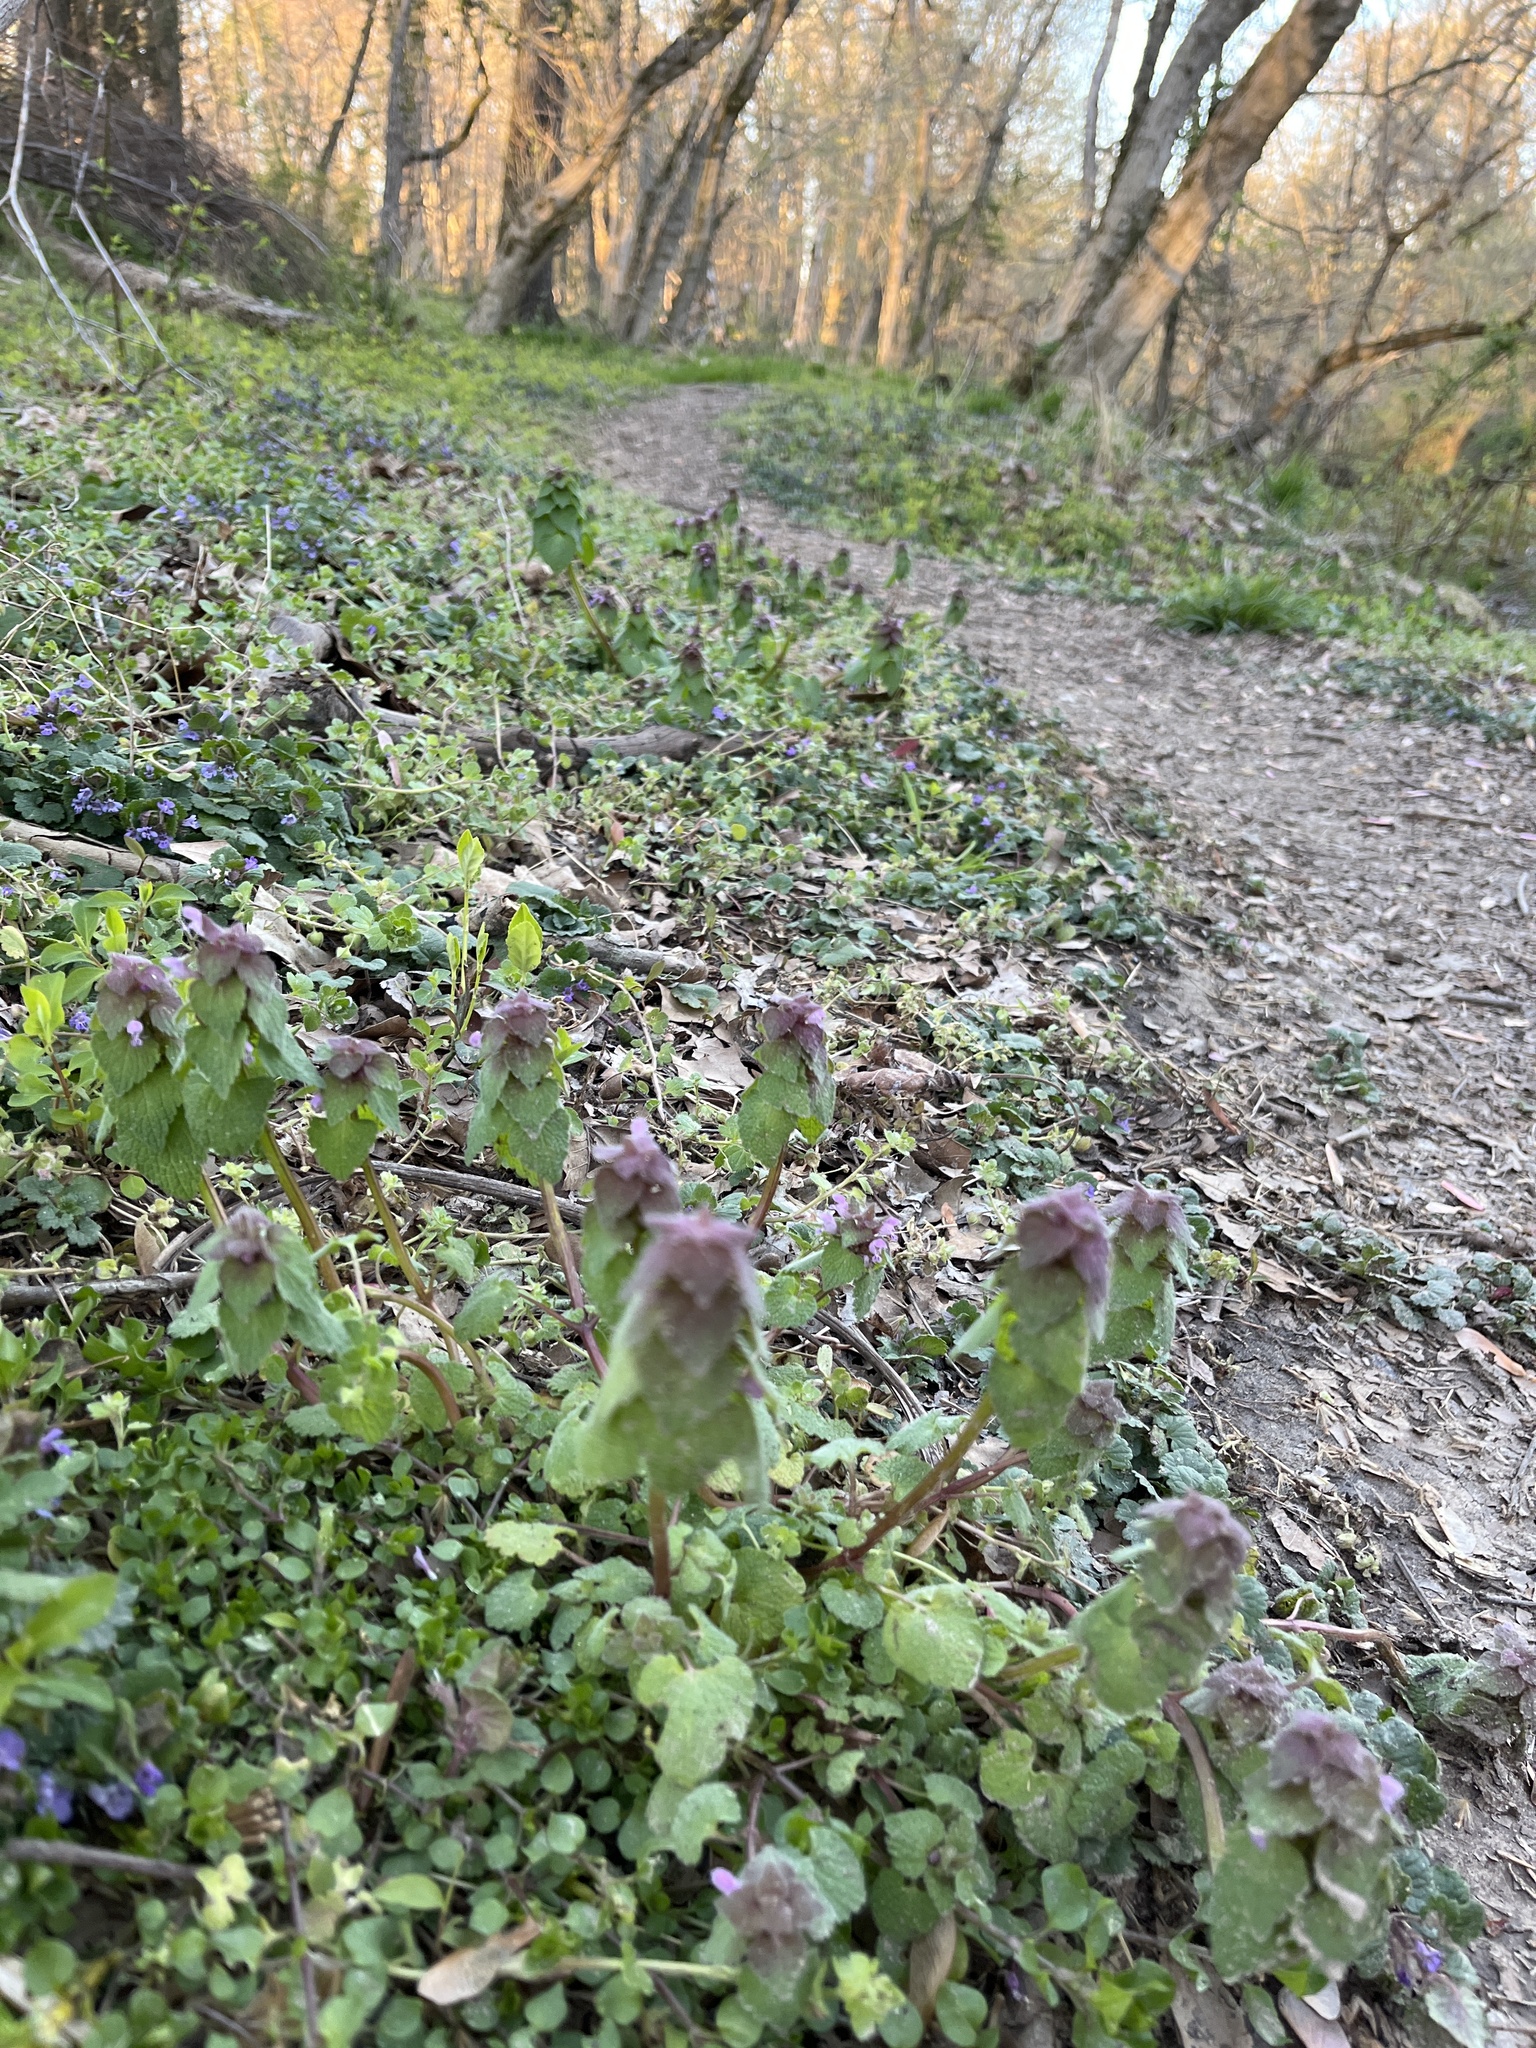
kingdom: Plantae
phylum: Tracheophyta
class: Magnoliopsida
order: Lamiales
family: Lamiaceae
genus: Lamium
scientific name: Lamium purpureum
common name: Red dead-nettle
